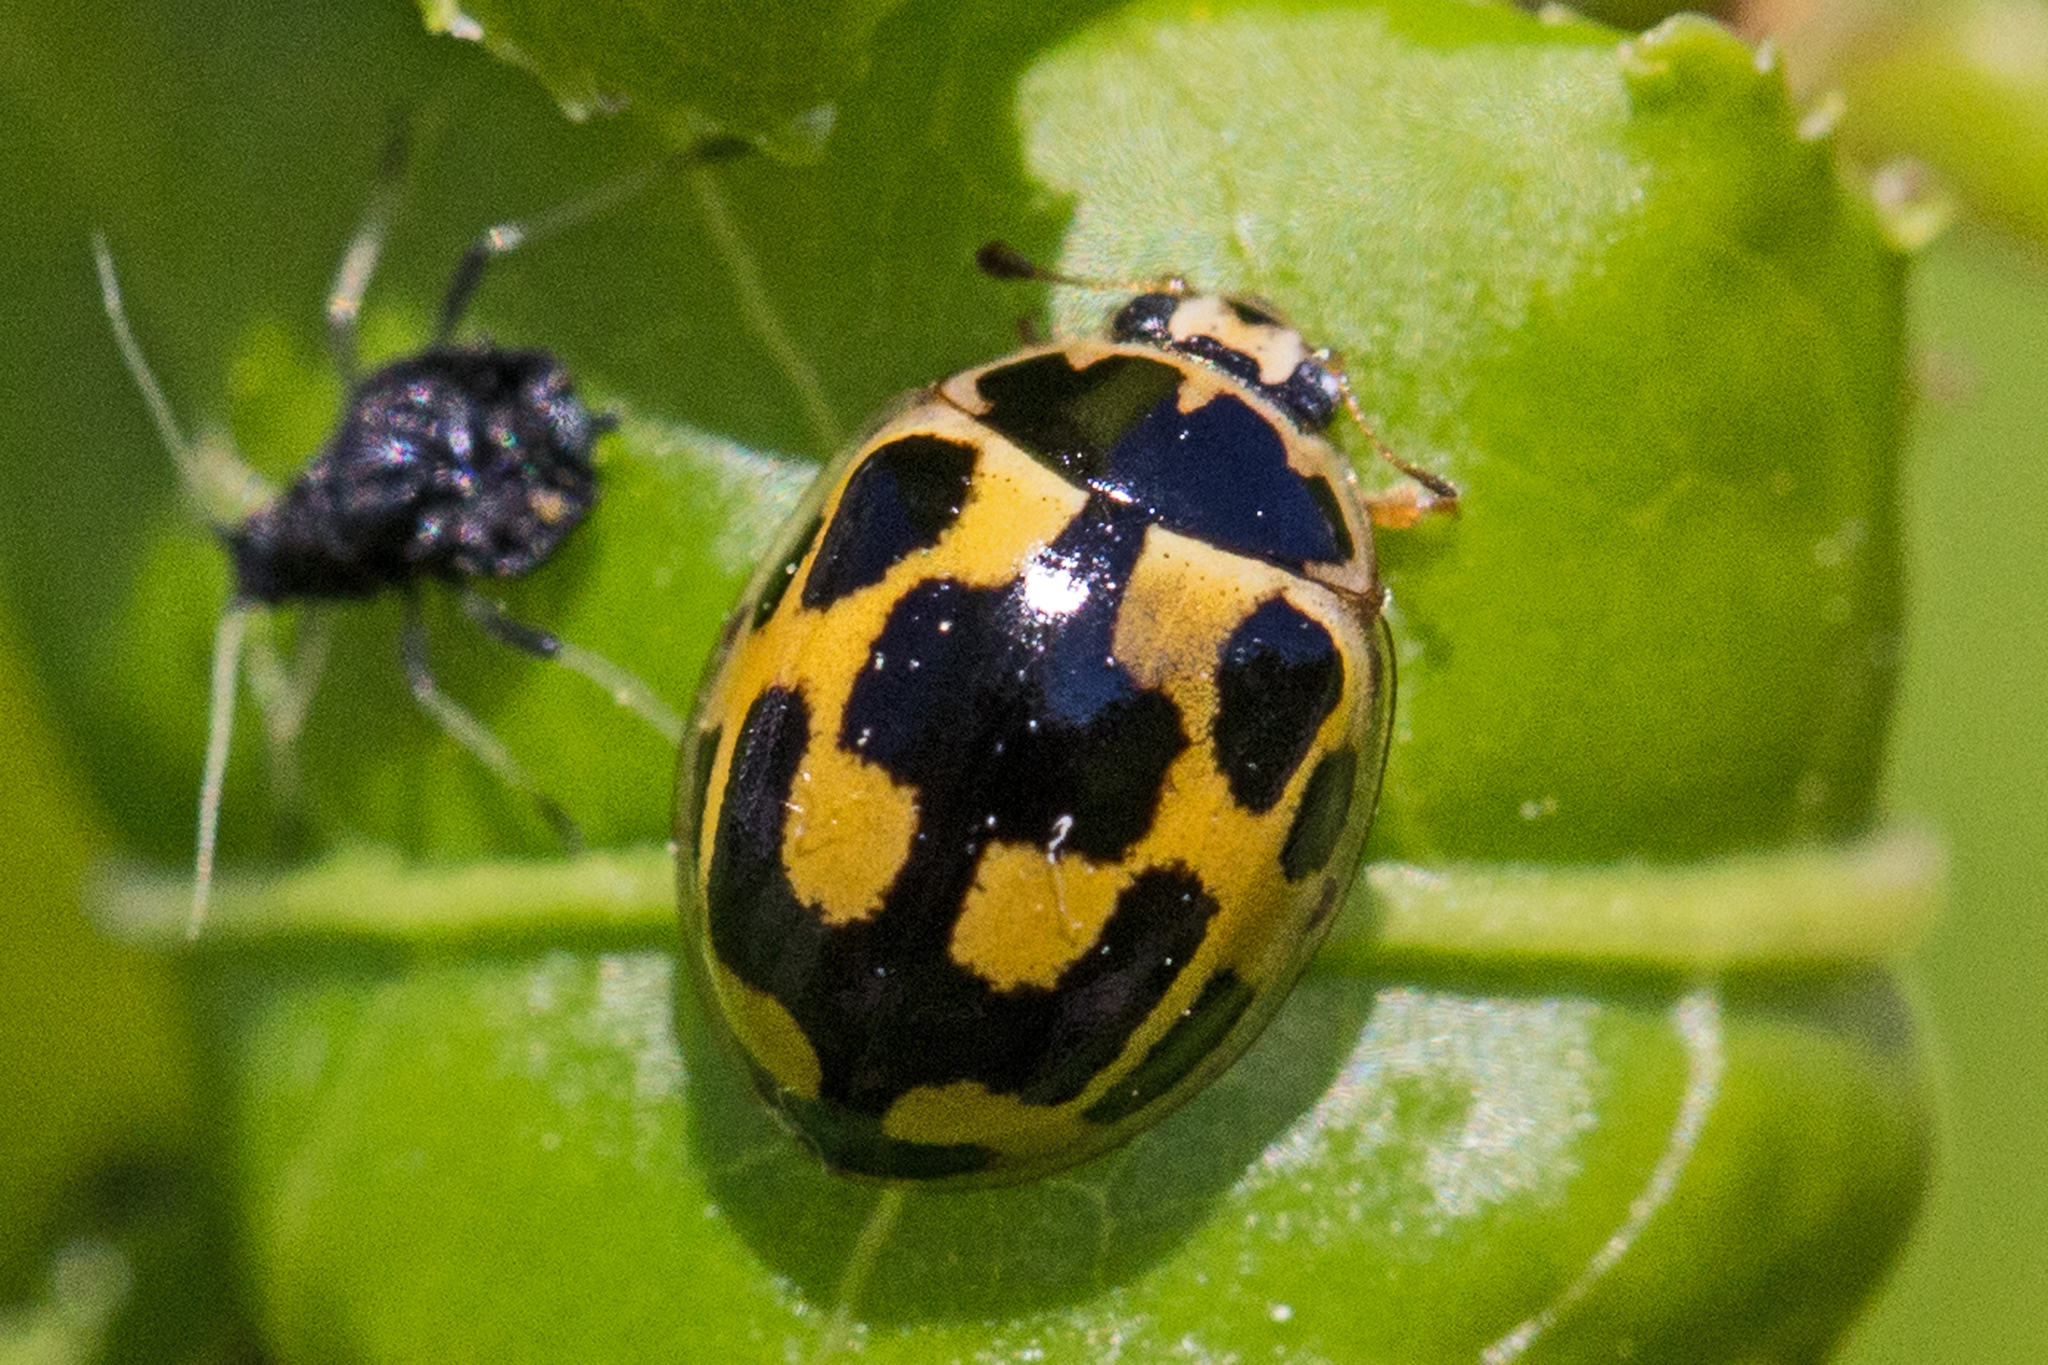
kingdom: Animalia
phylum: Arthropoda
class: Insecta
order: Coleoptera
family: Coccinellidae
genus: Propylaea
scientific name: Propylaea quatuordecimpunctata
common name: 14-spotted ladybird beetle
